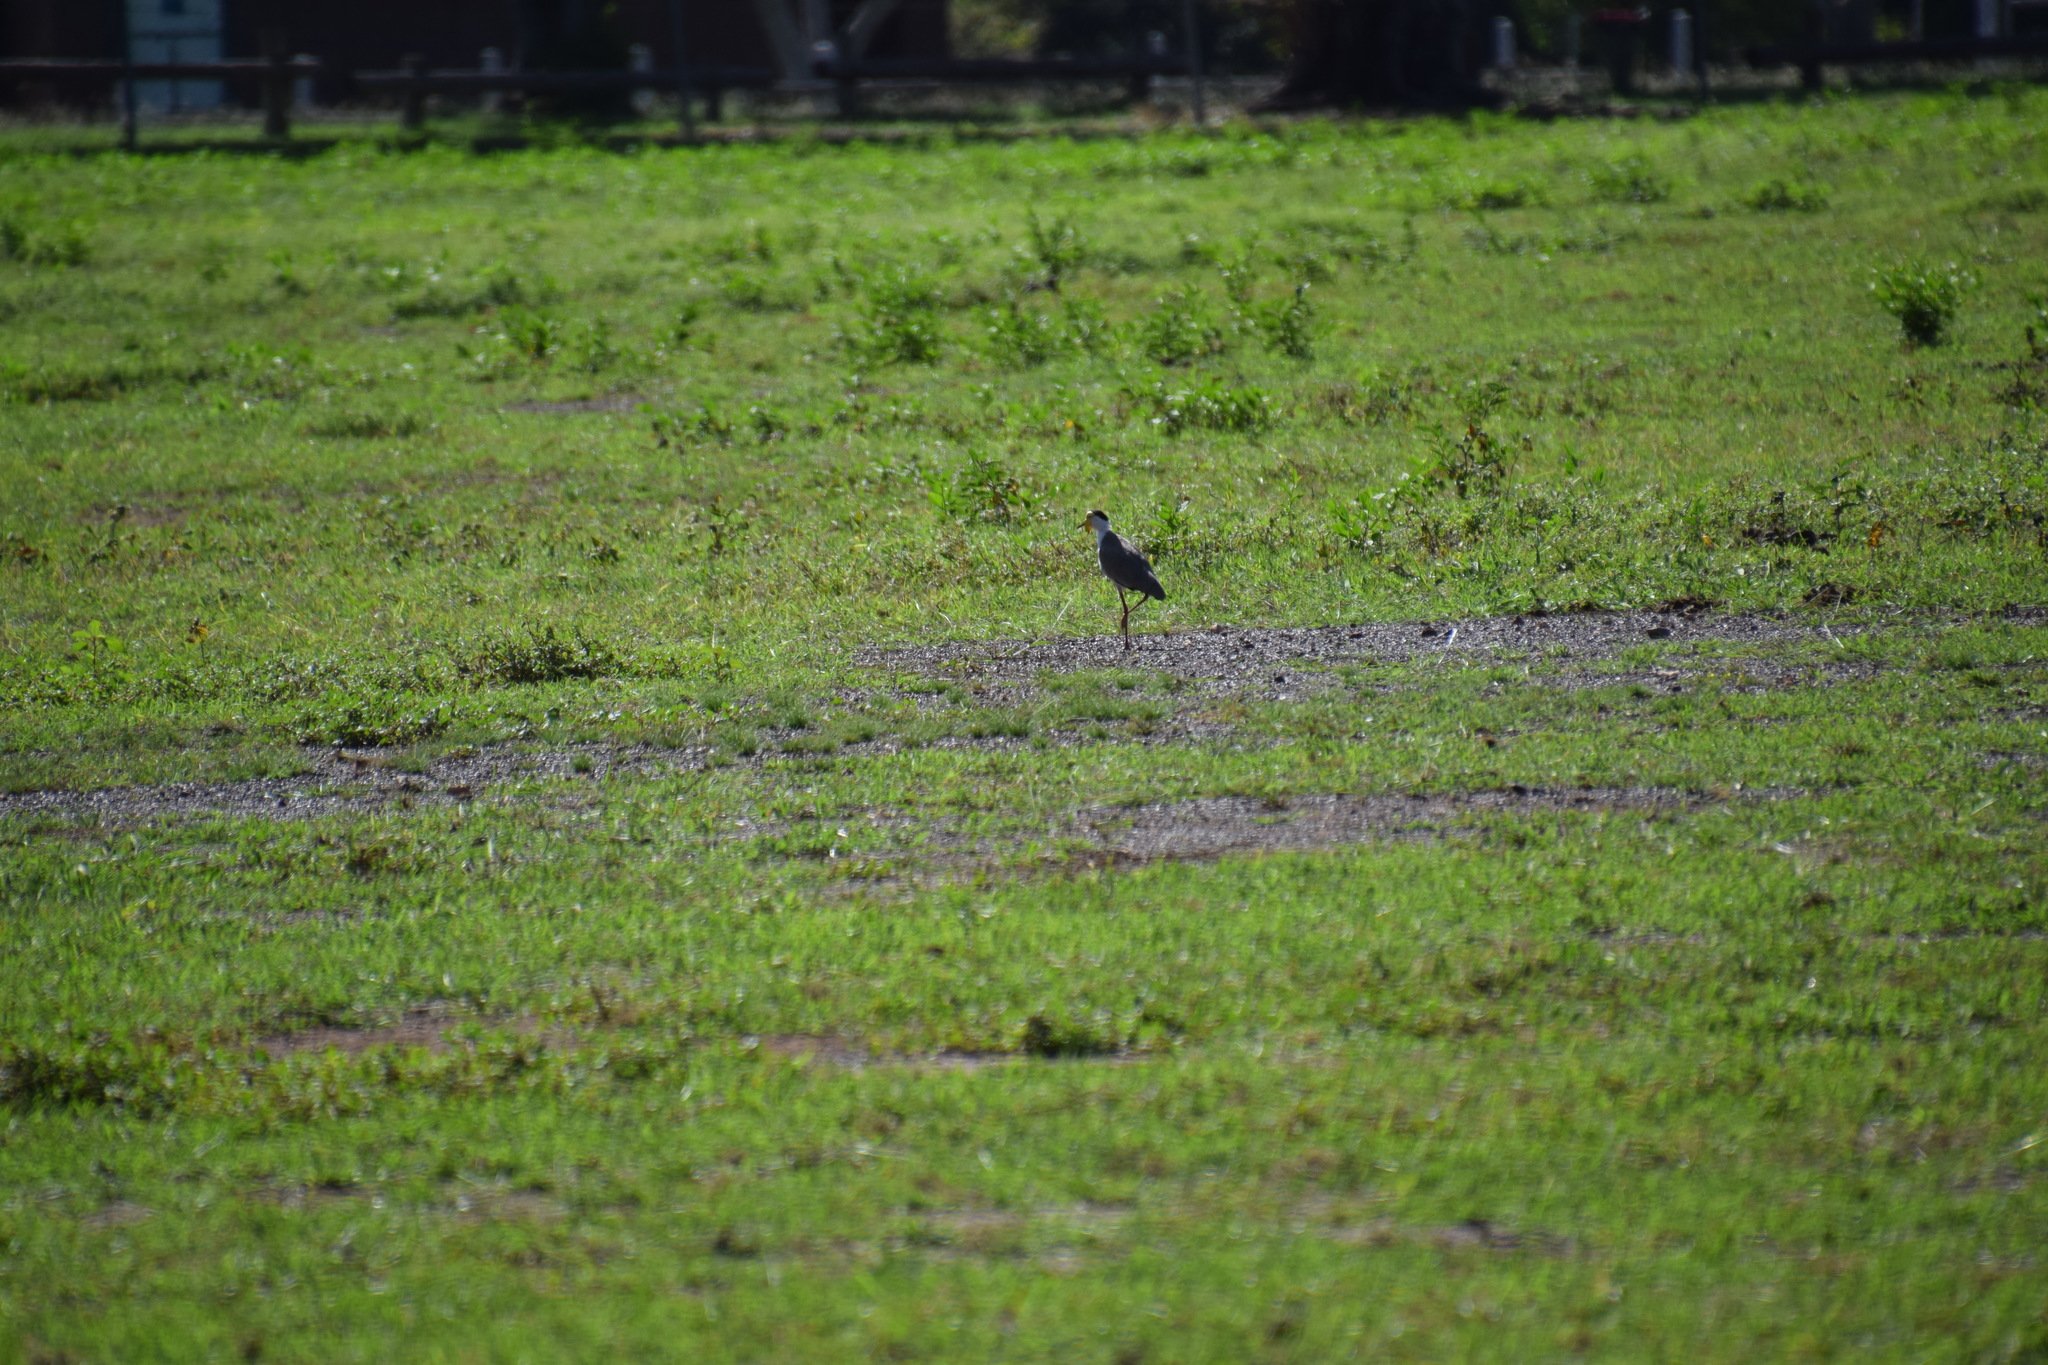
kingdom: Animalia
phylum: Chordata
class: Aves
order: Charadriiformes
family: Charadriidae
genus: Vanellus
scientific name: Vanellus miles
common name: Masked lapwing
